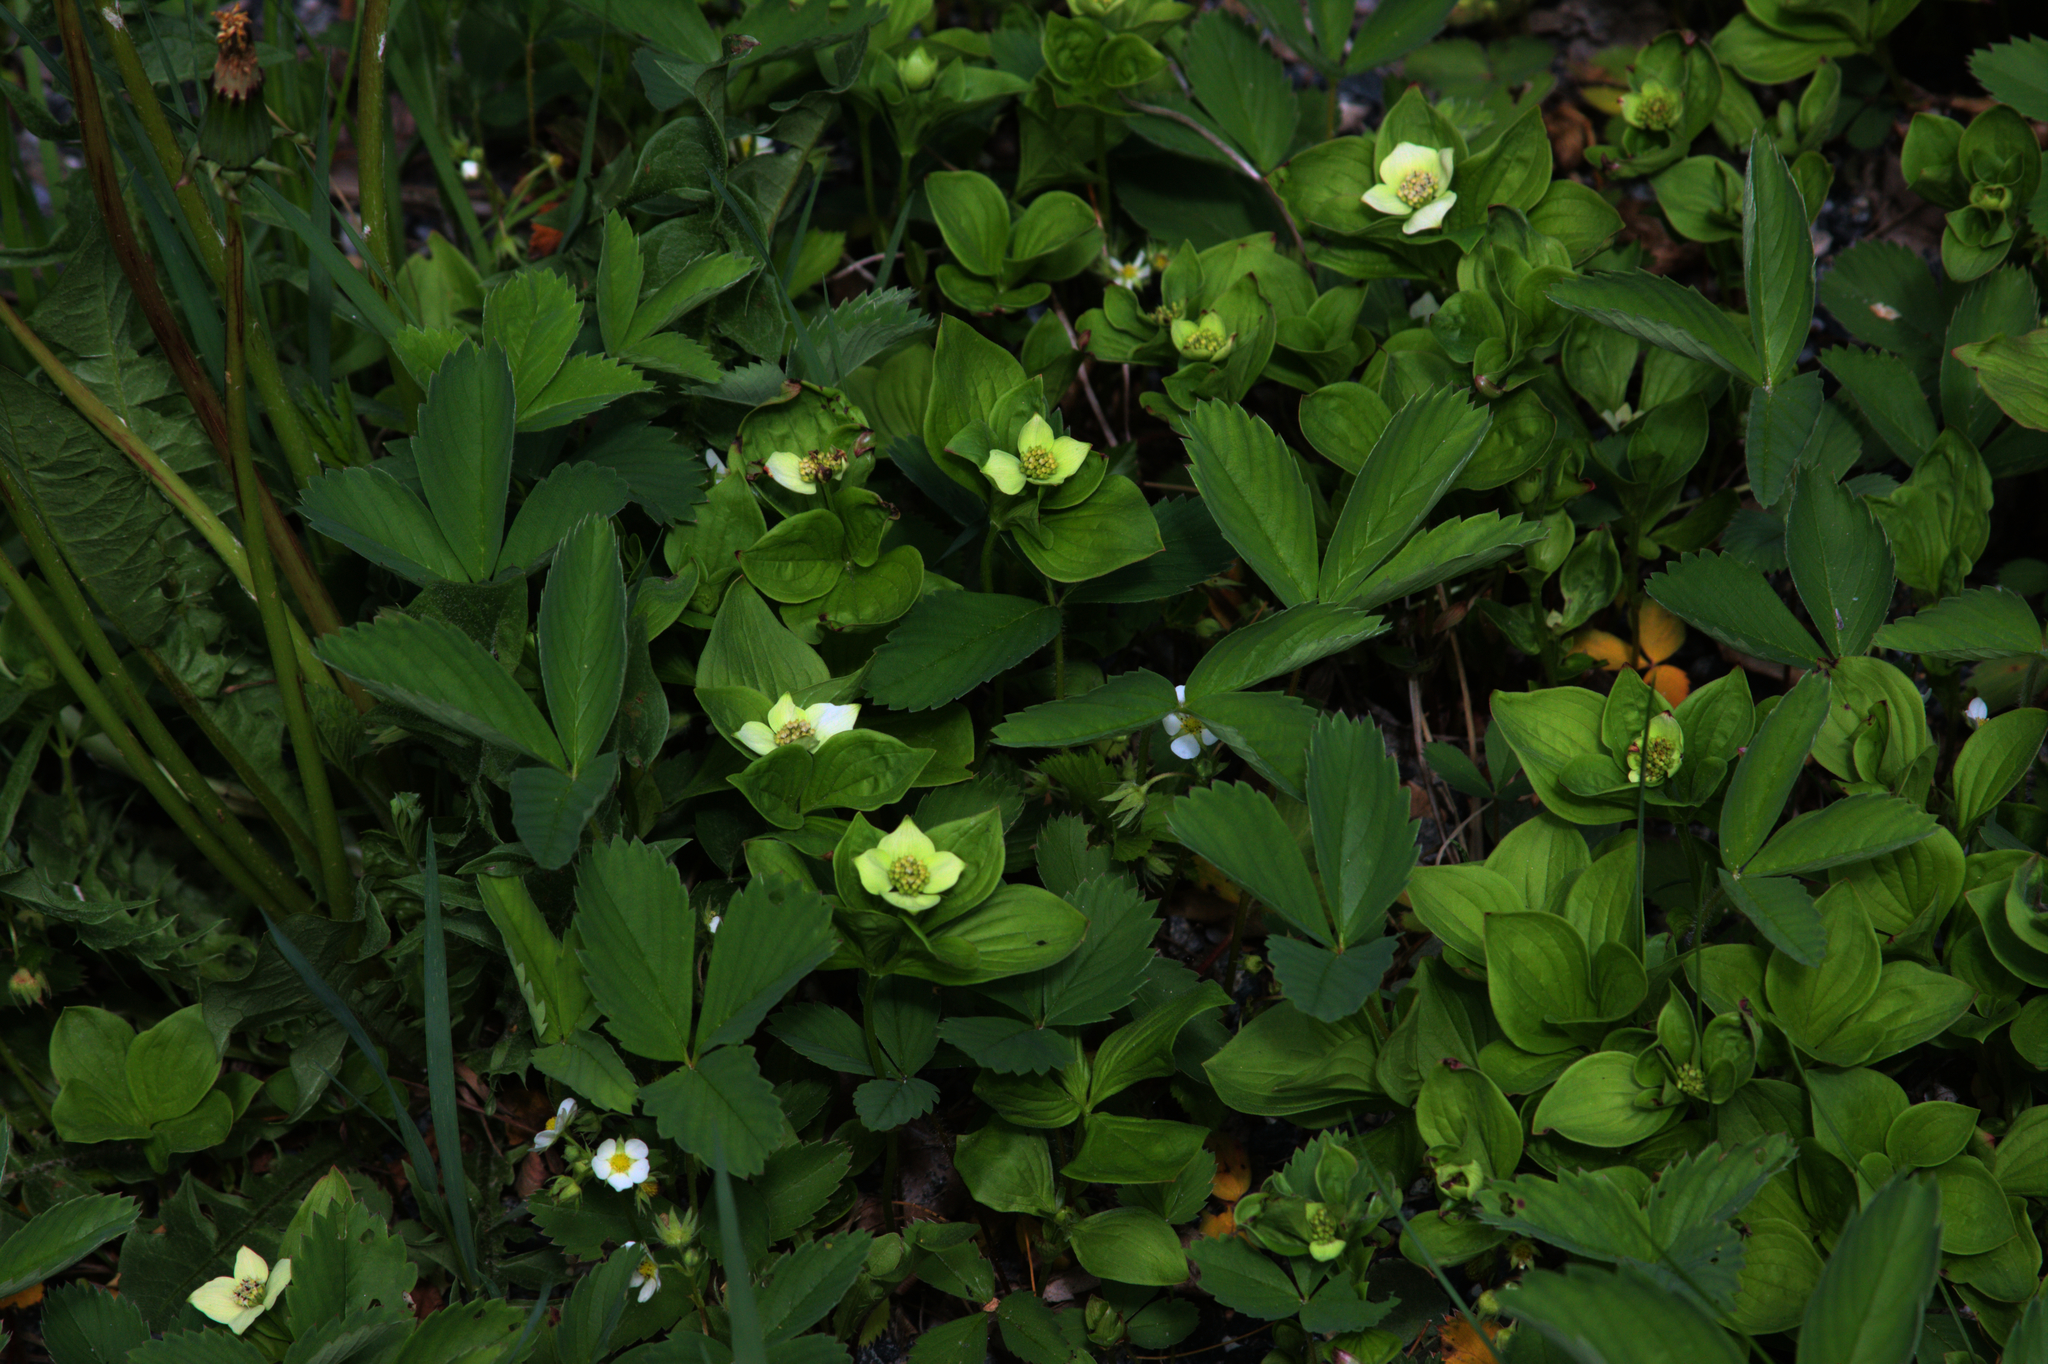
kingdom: Plantae
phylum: Tracheophyta
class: Magnoliopsida
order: Cornales
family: Cornaceae
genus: Cornus
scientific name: Cornus canadensis
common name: Creeping dogwood
